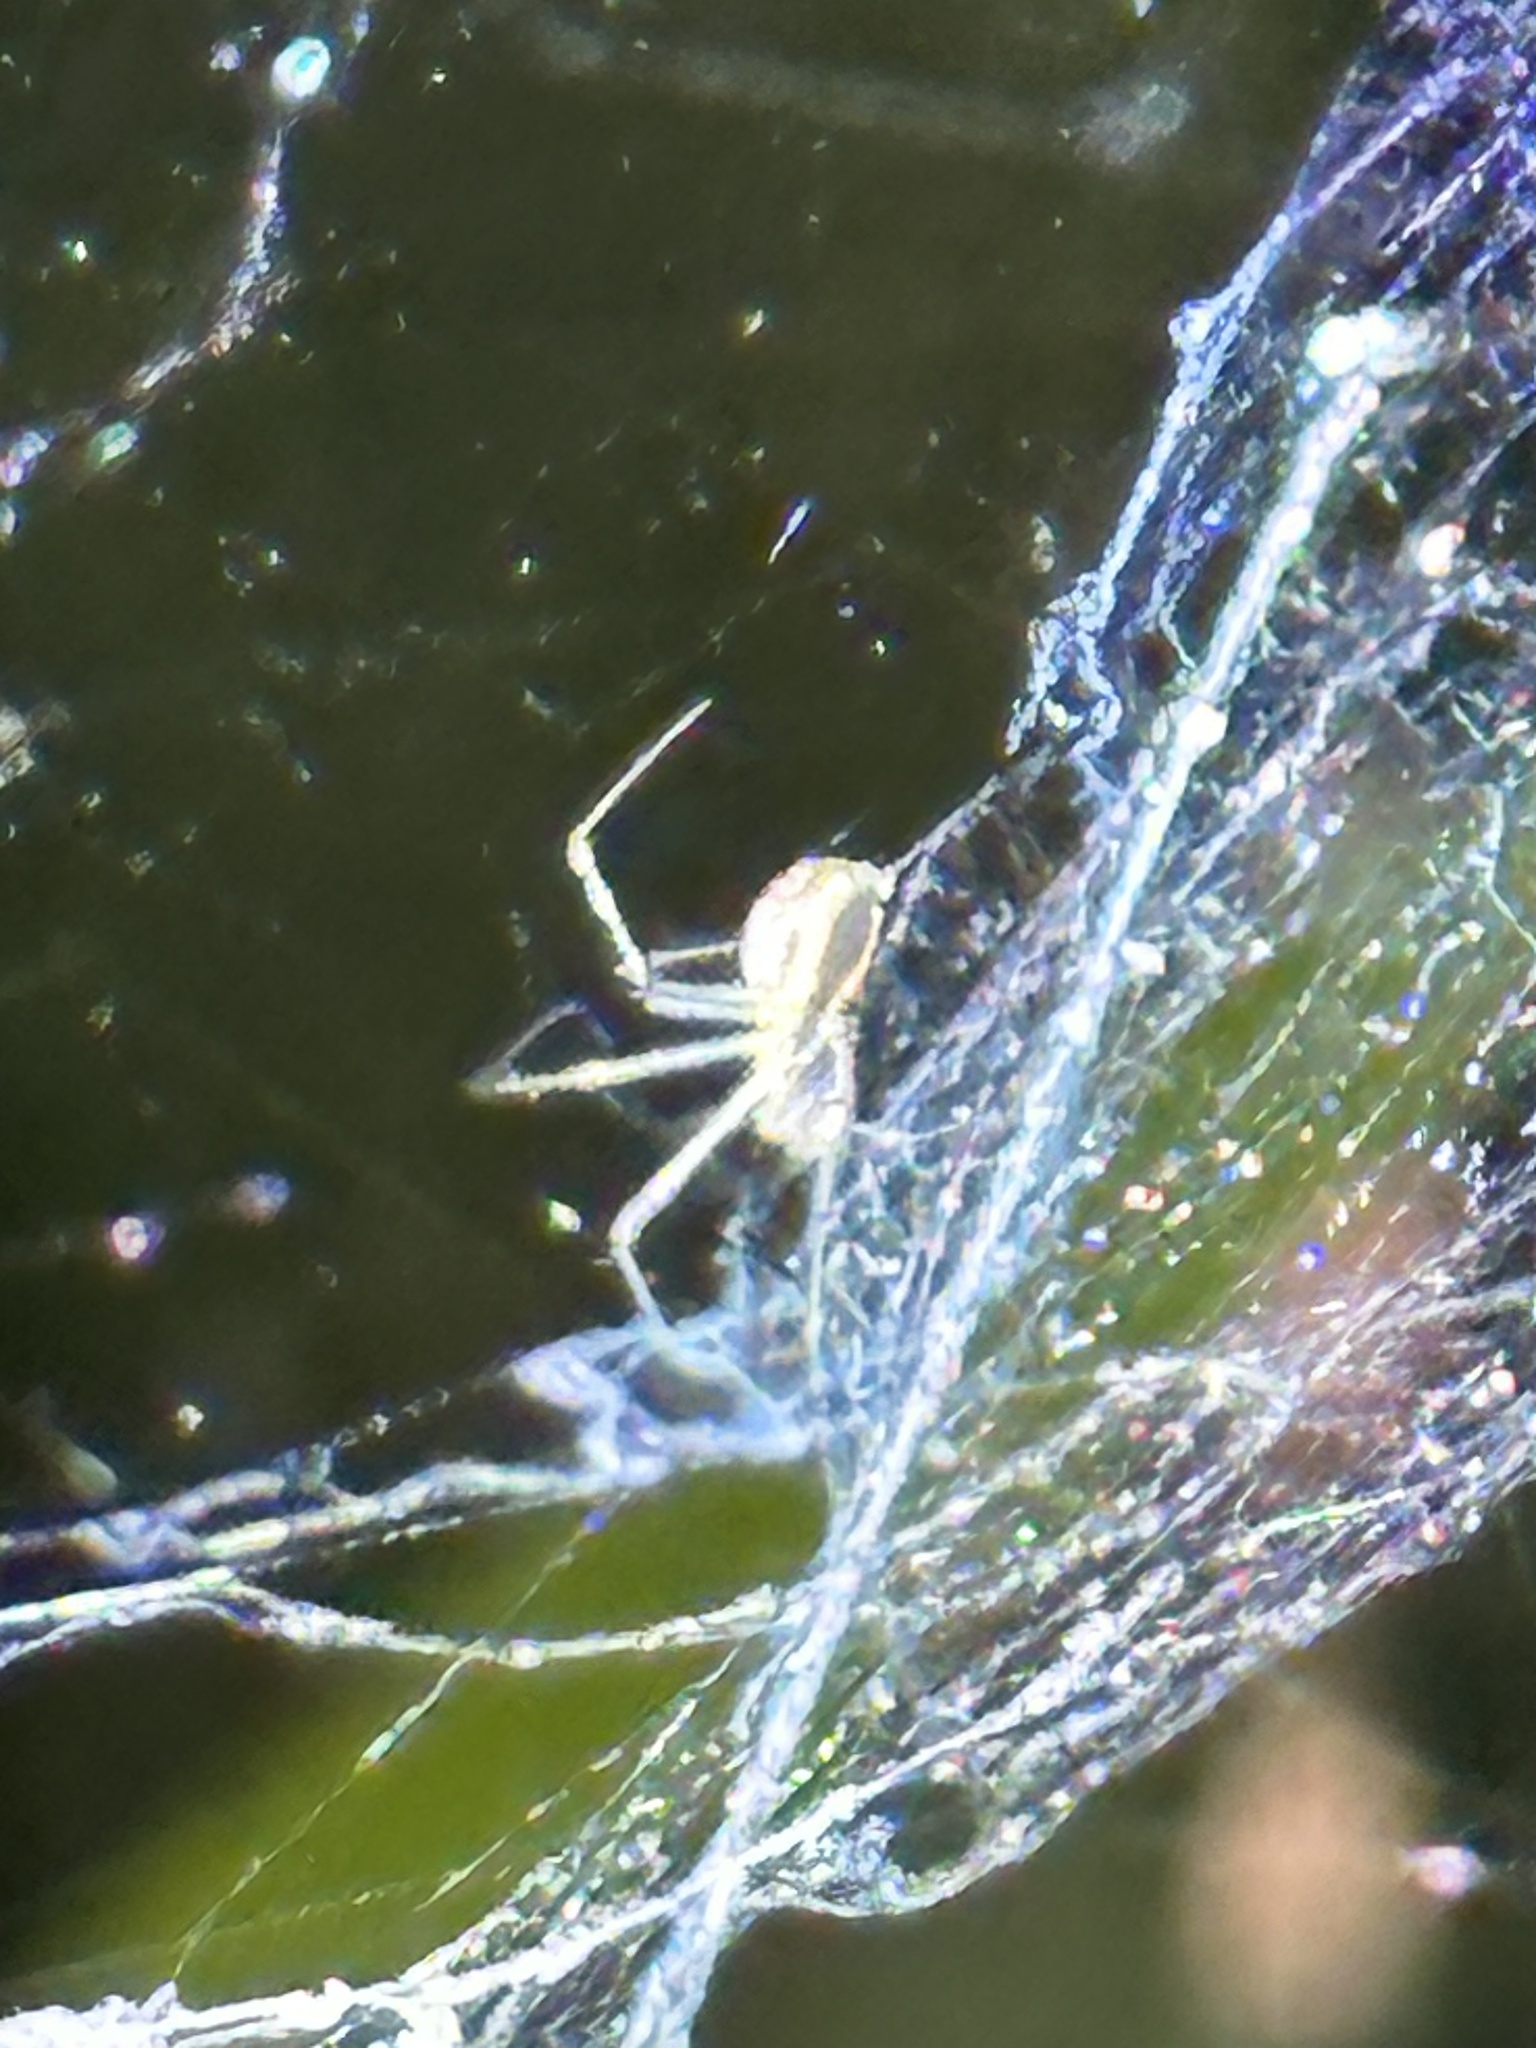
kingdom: Animalia
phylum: Arthropoda
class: Arachnida
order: Araneae
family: Linyphiidae
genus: Neriene
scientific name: Neriene radiata
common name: Filmy dome spider
